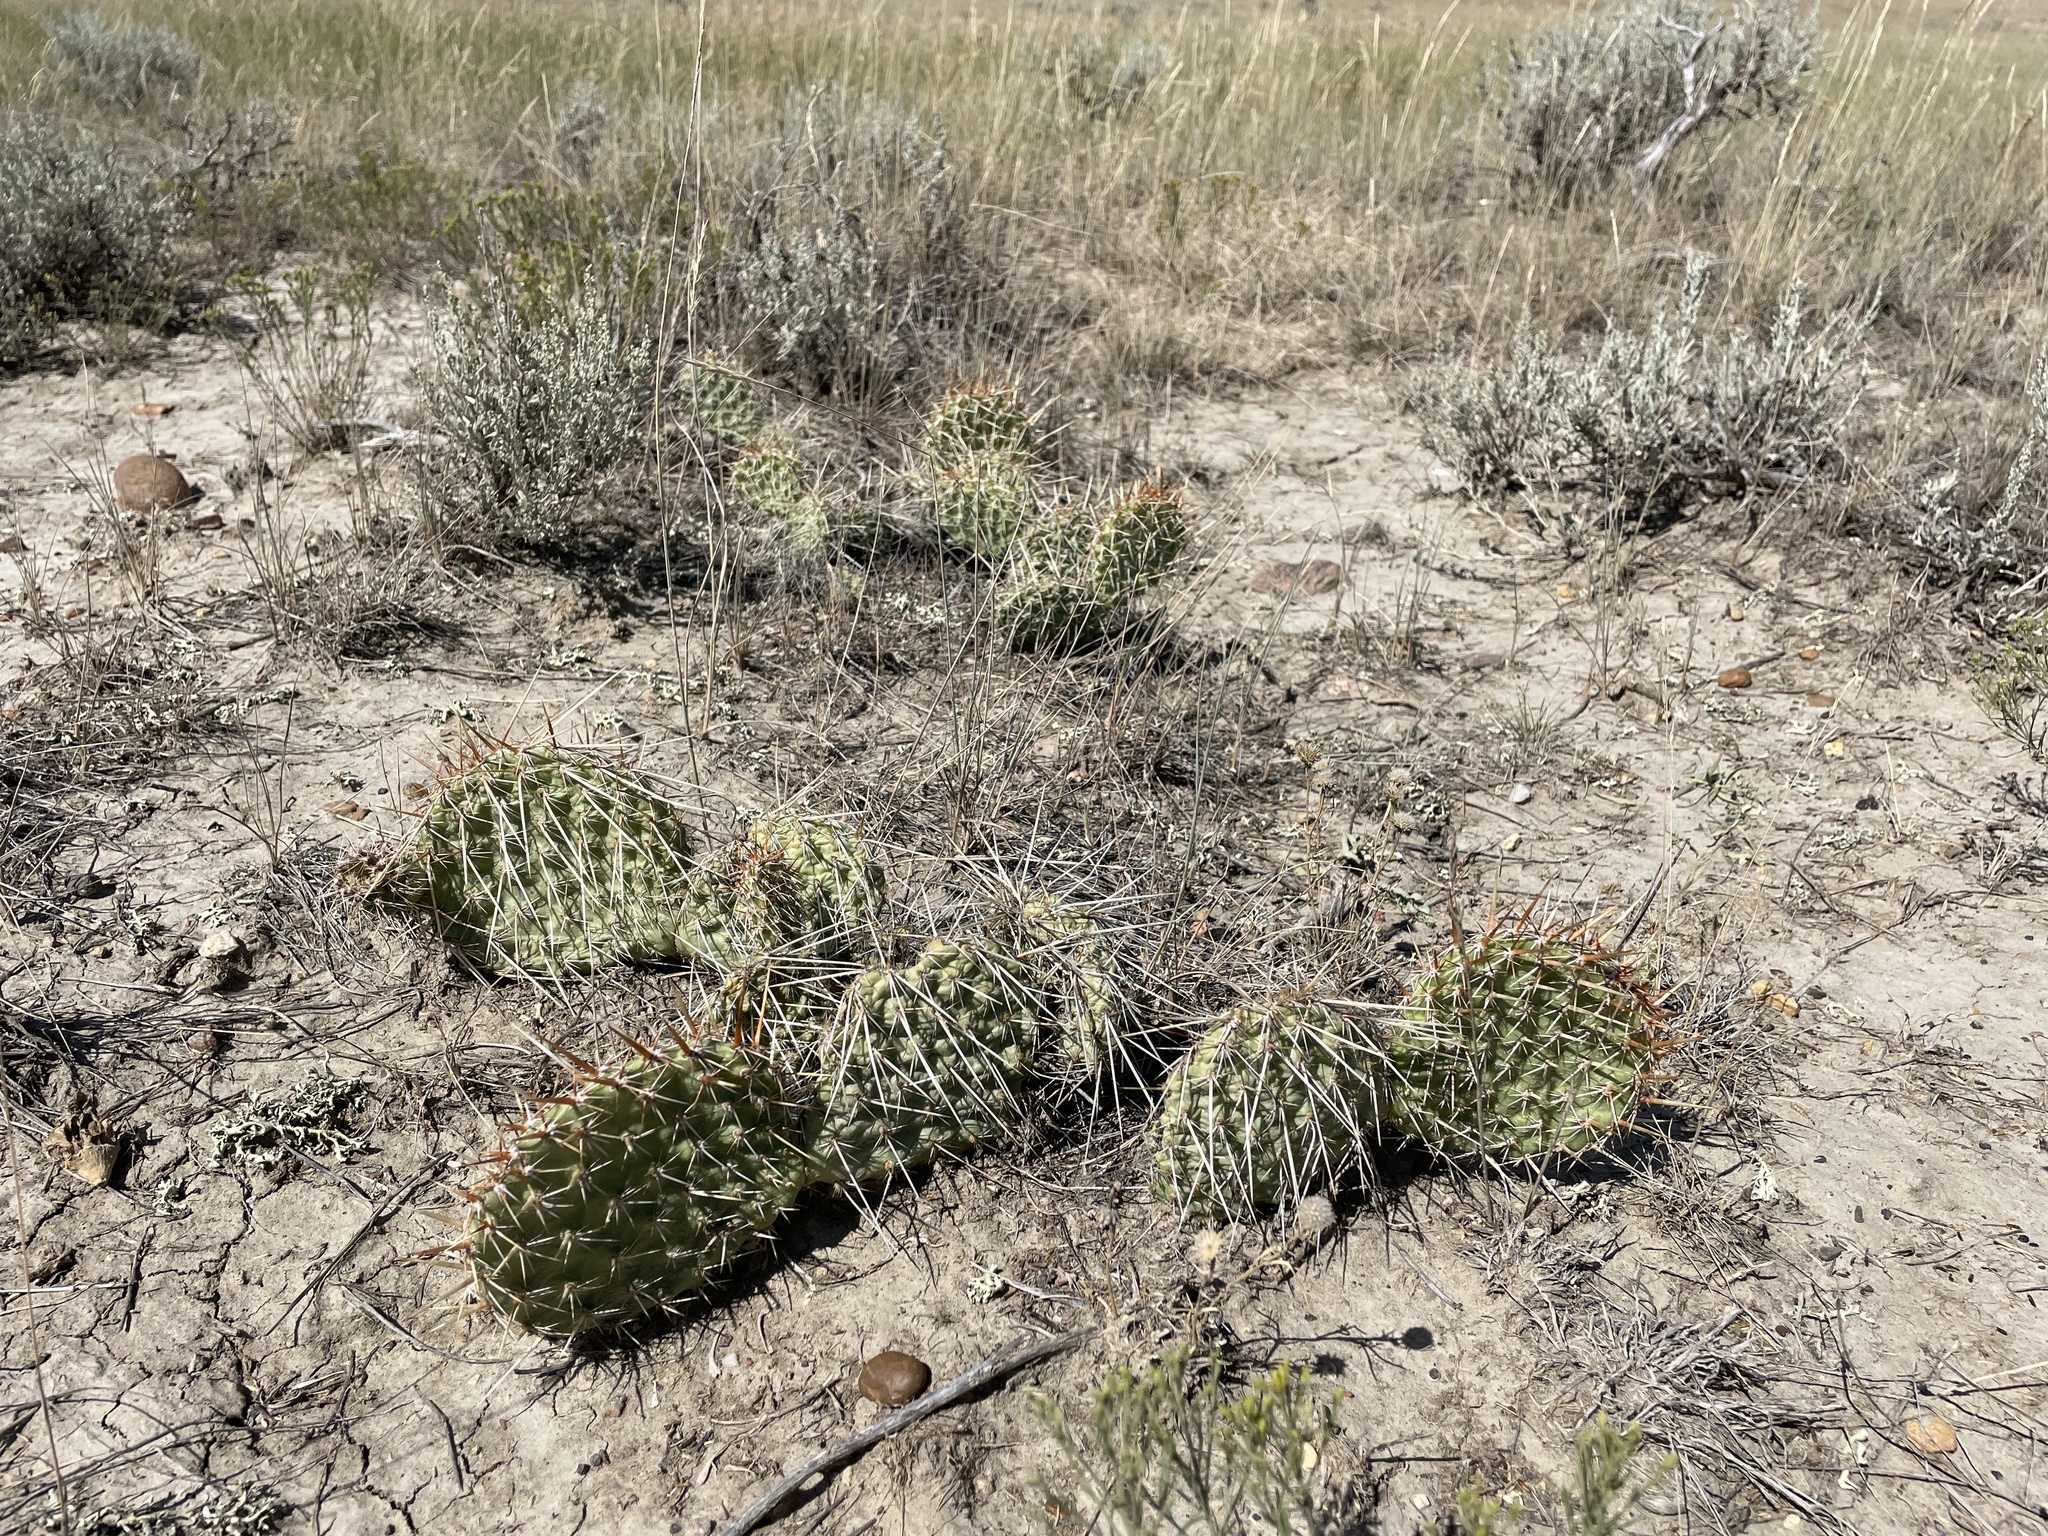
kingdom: Plantae
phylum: Tracheophyta
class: Magnoliopsida
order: Caryophyllales
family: Cactaceae
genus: Opuntia
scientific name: Opuntia polyacantha
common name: Plains prickly-pear
